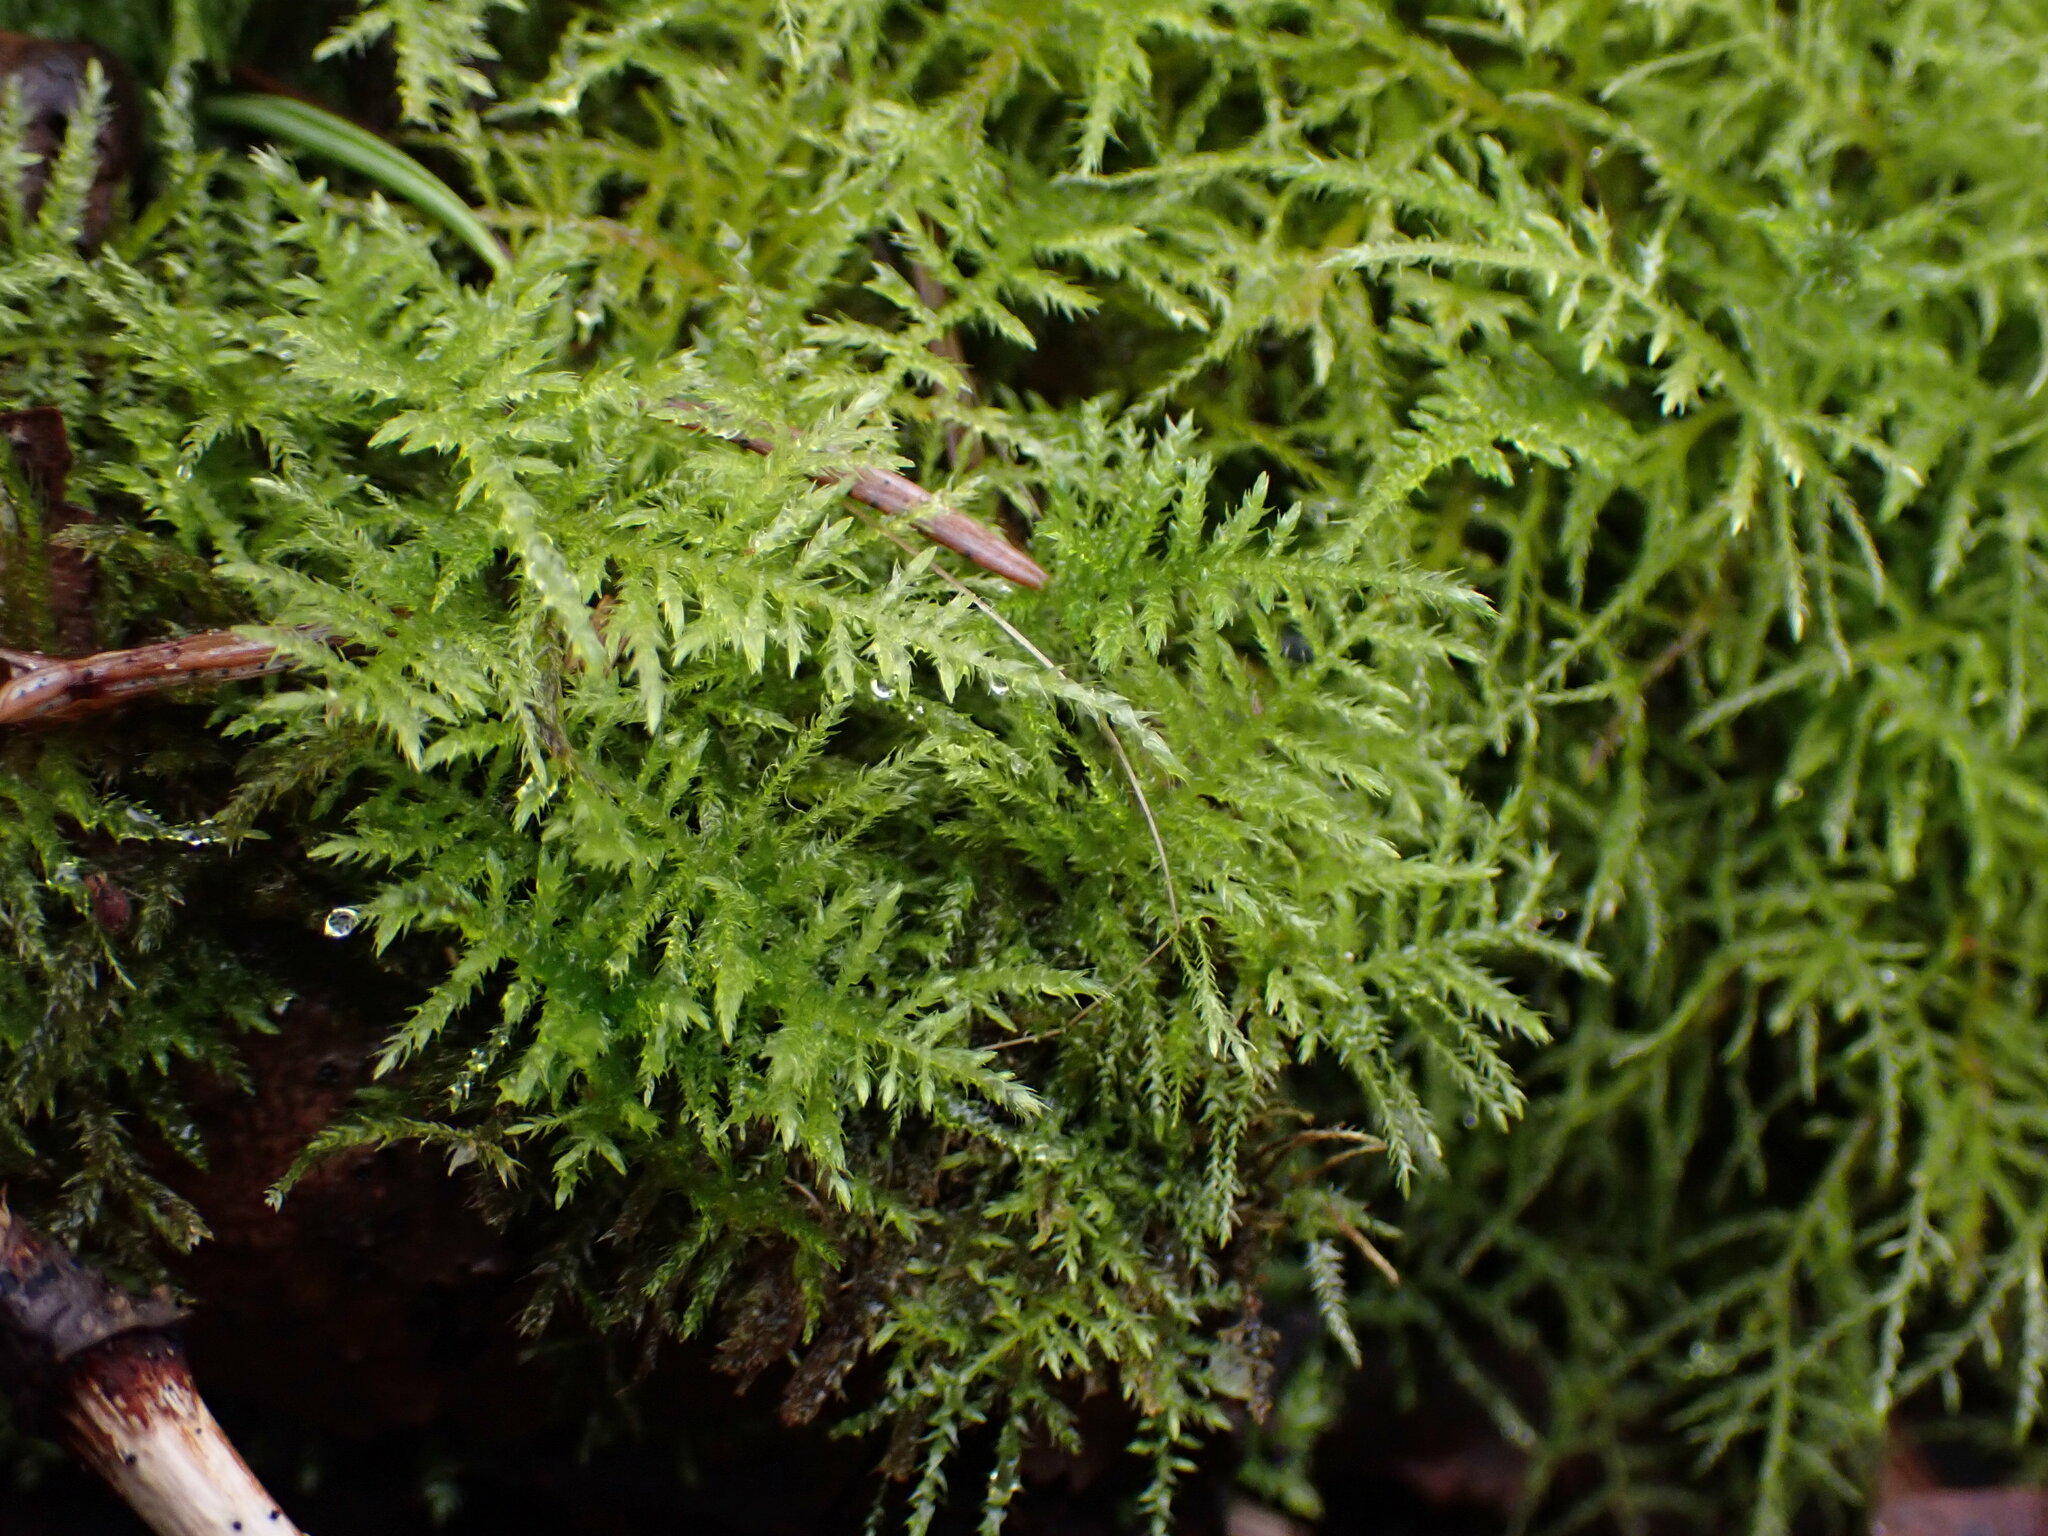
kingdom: Plantae
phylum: Bryophyta
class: Bryopsida
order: Hypnales
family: Brachytheciaceae
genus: Kindbergia
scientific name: Kindbergia praelonga
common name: Slender beaked moss
